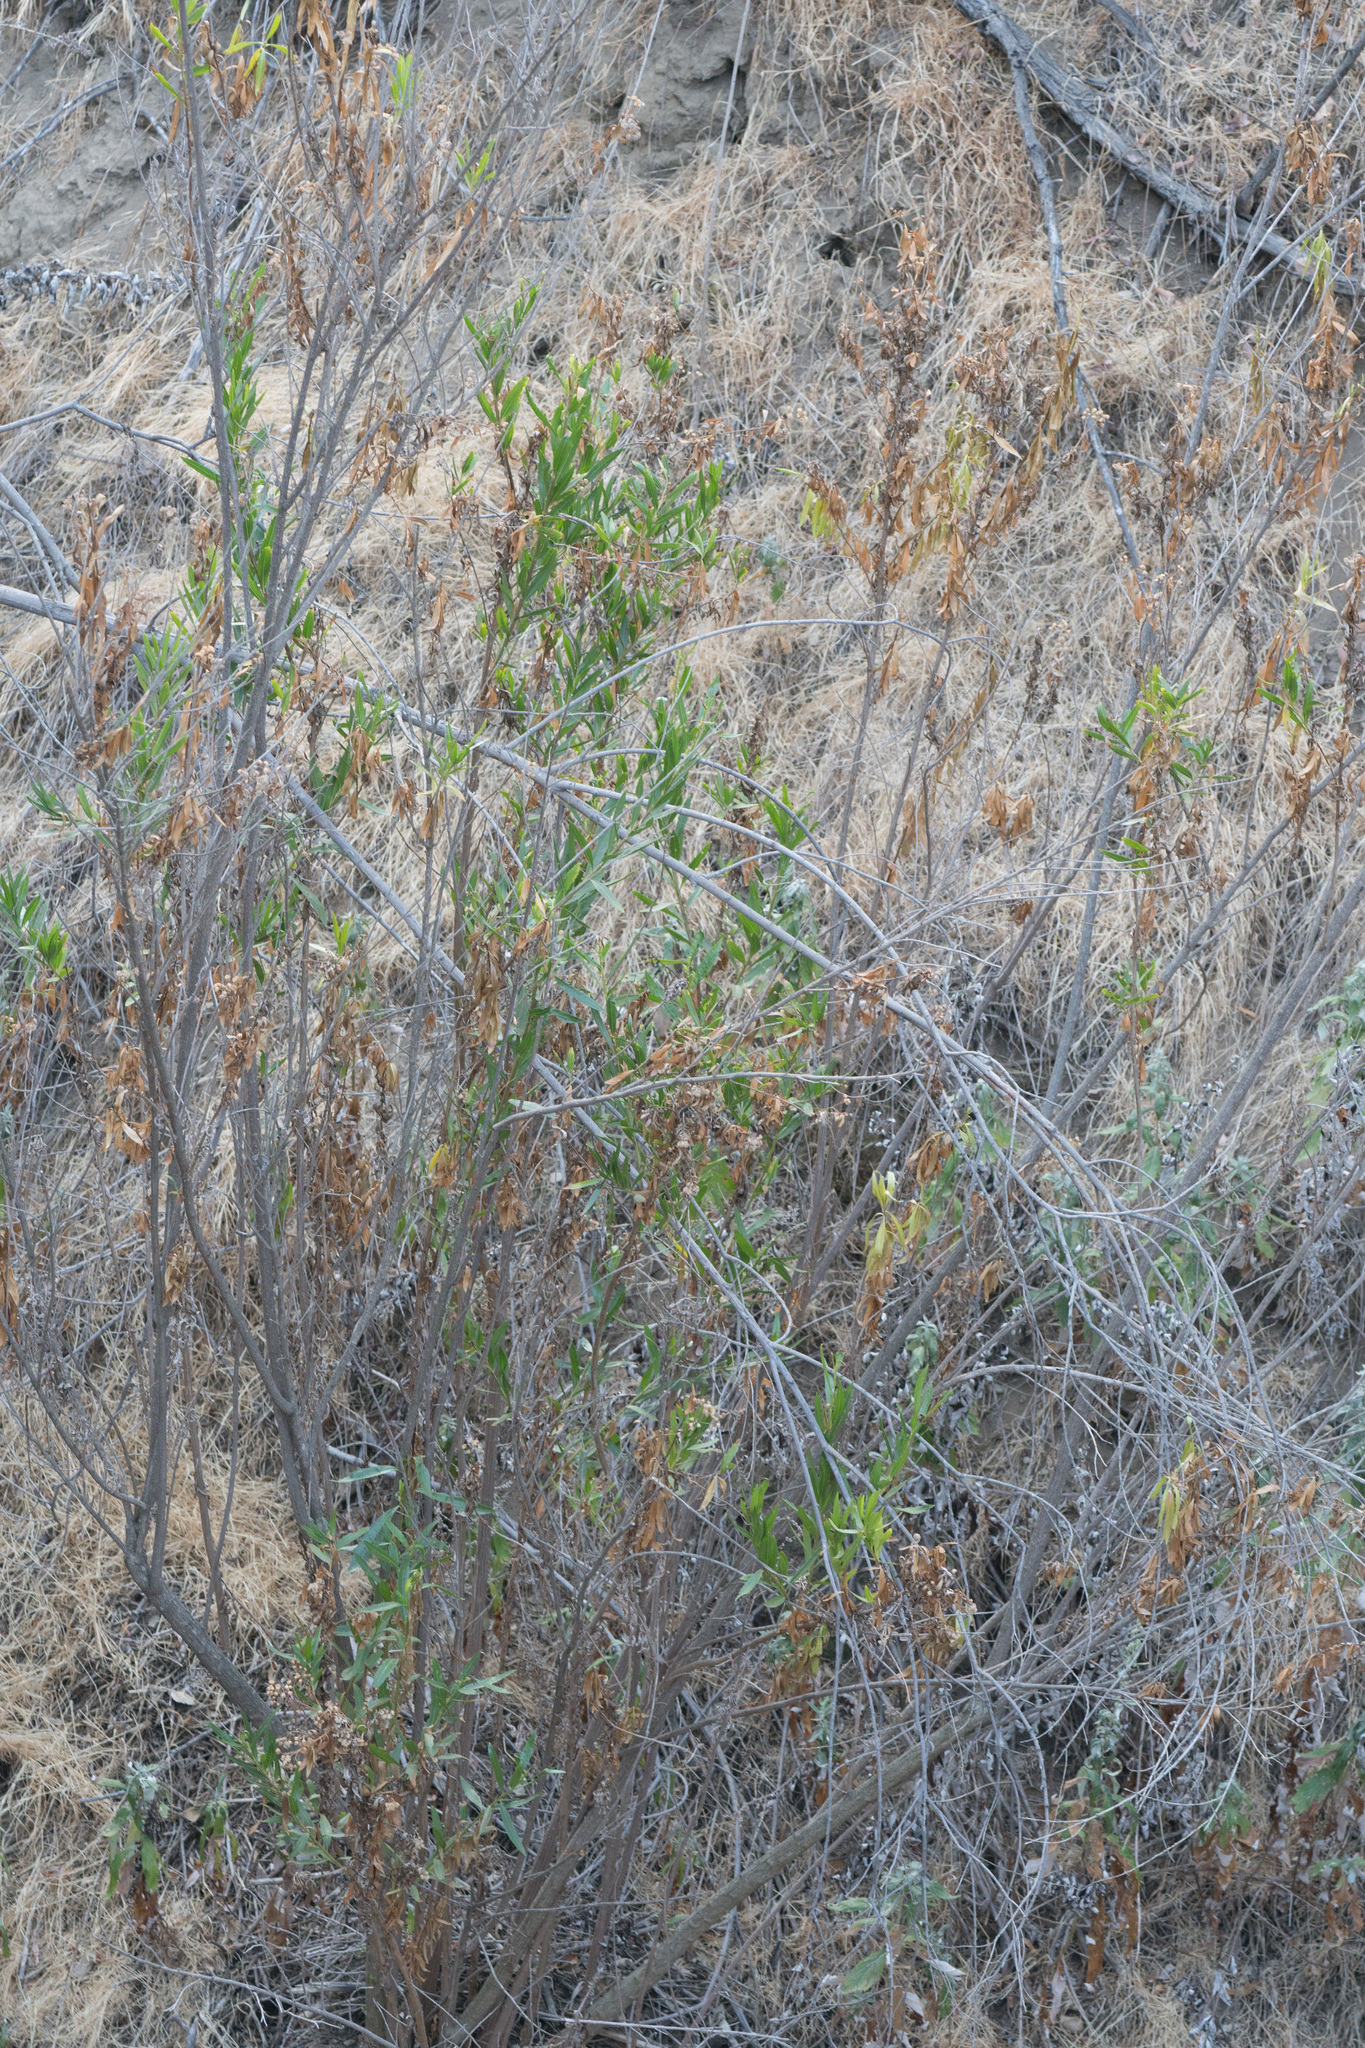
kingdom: Plantae
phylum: Tracheophyta
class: Magnoliopsida
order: Asterales
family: Asteraceae
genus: Baccharis
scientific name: Baccharis salicifolia
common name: Sticky baccharis
